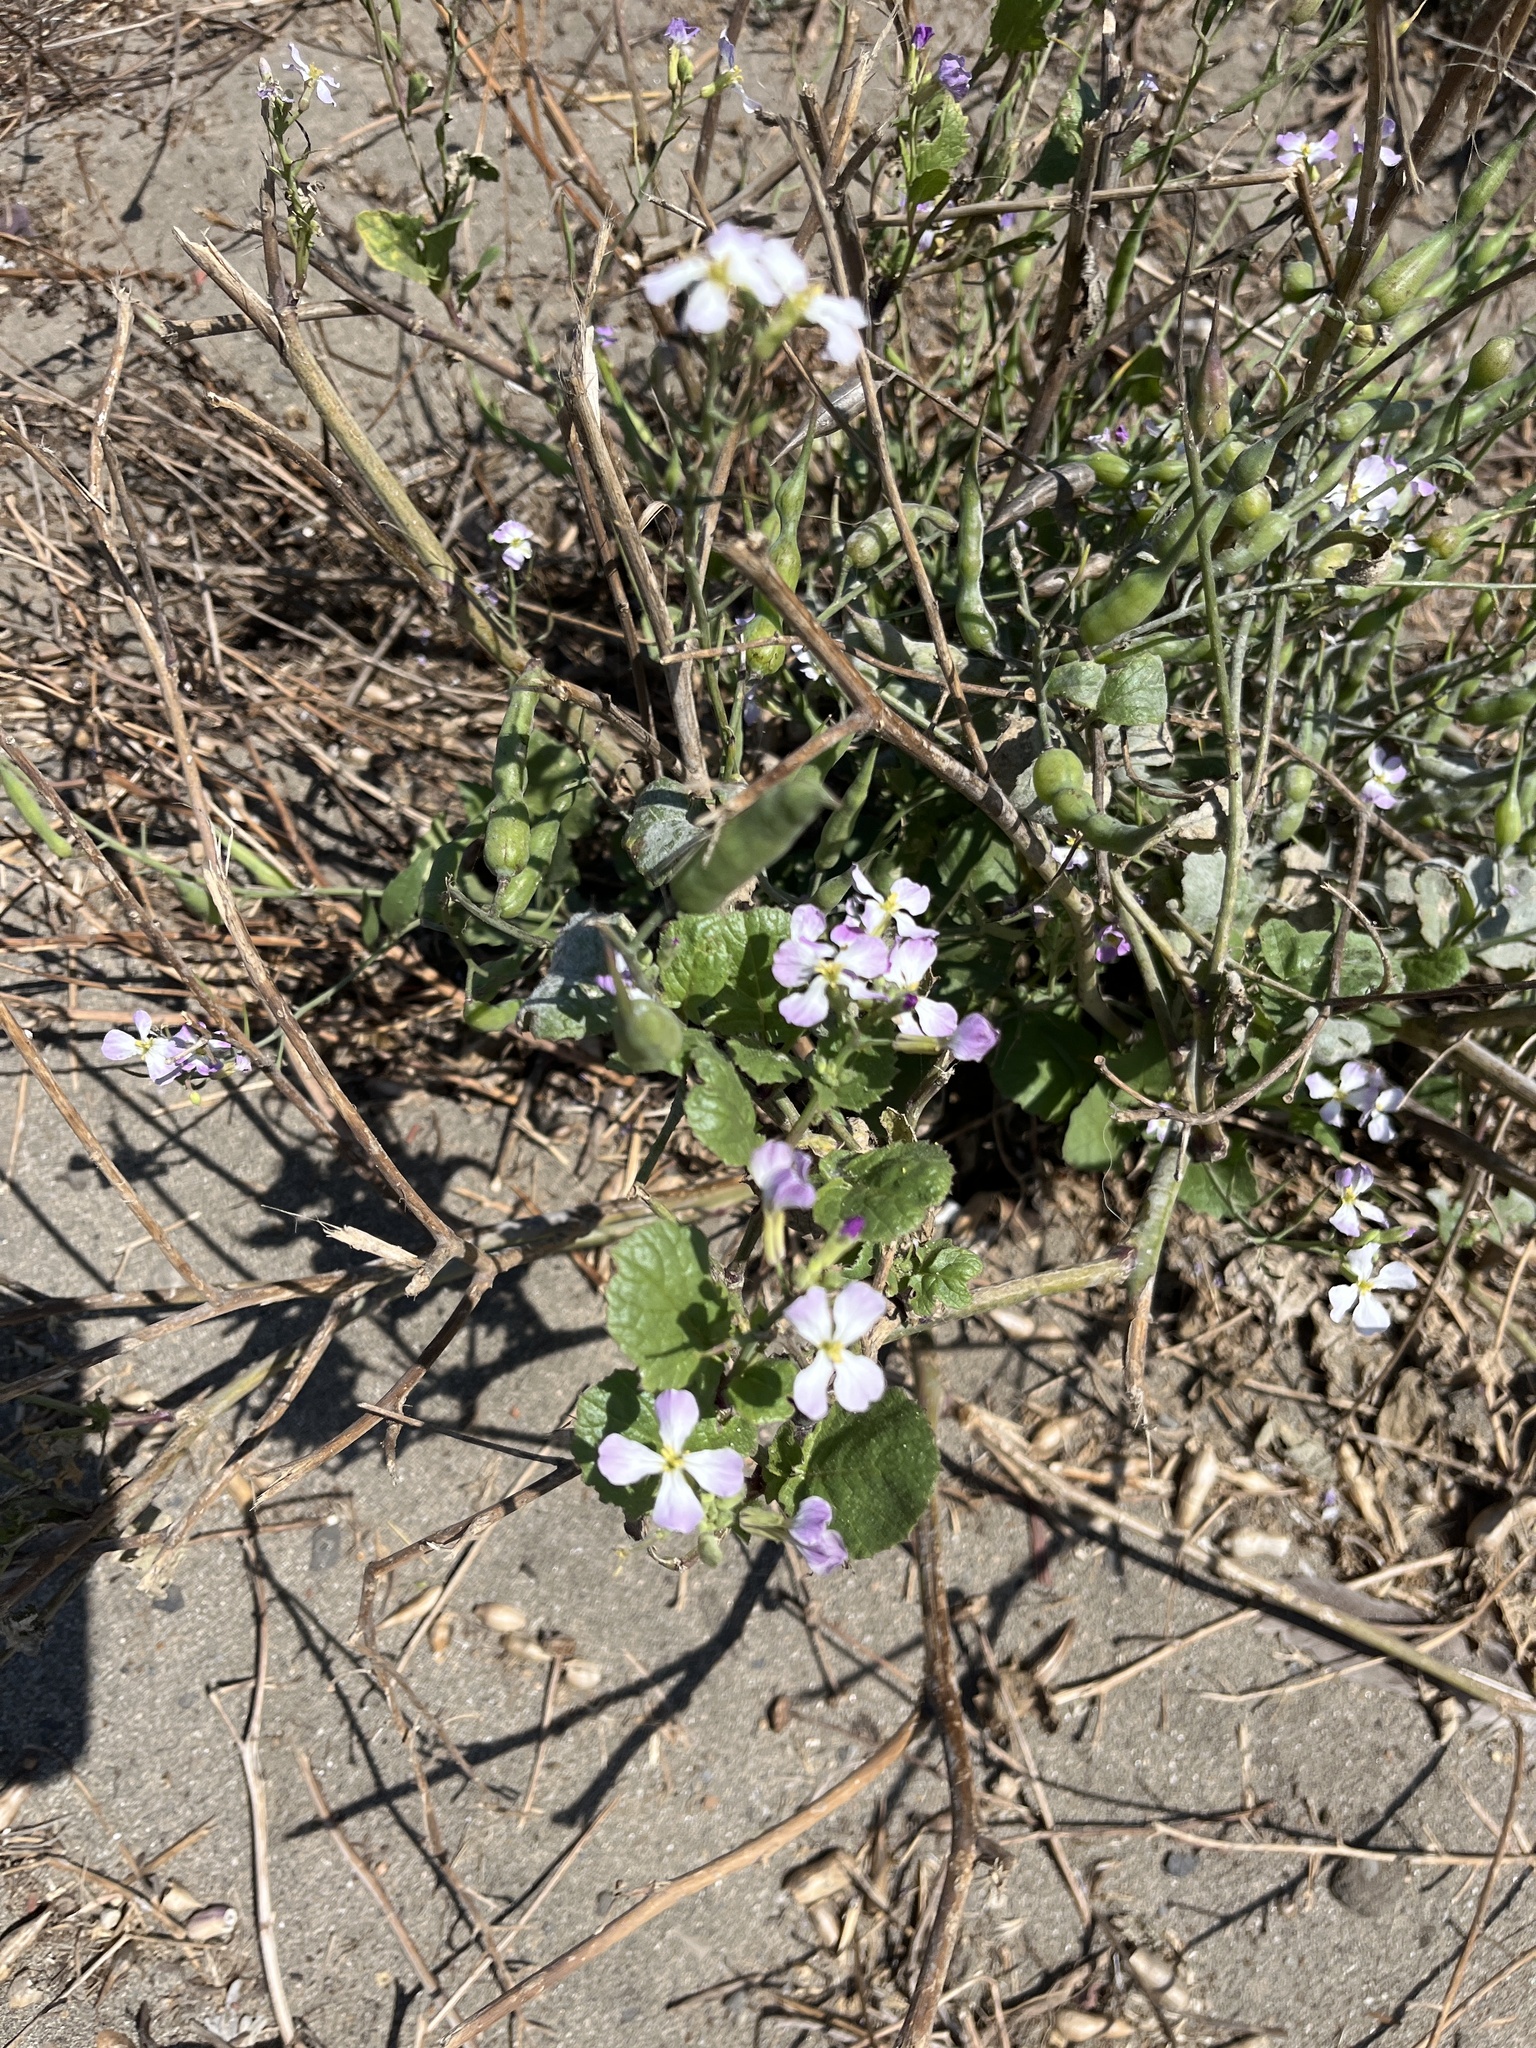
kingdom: Plantae
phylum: Tracheophyta
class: Magnoliopsida
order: Brassicales
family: Brassicaceae
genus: Raphanus
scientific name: Raphanus sativus
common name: Cultivated radish
